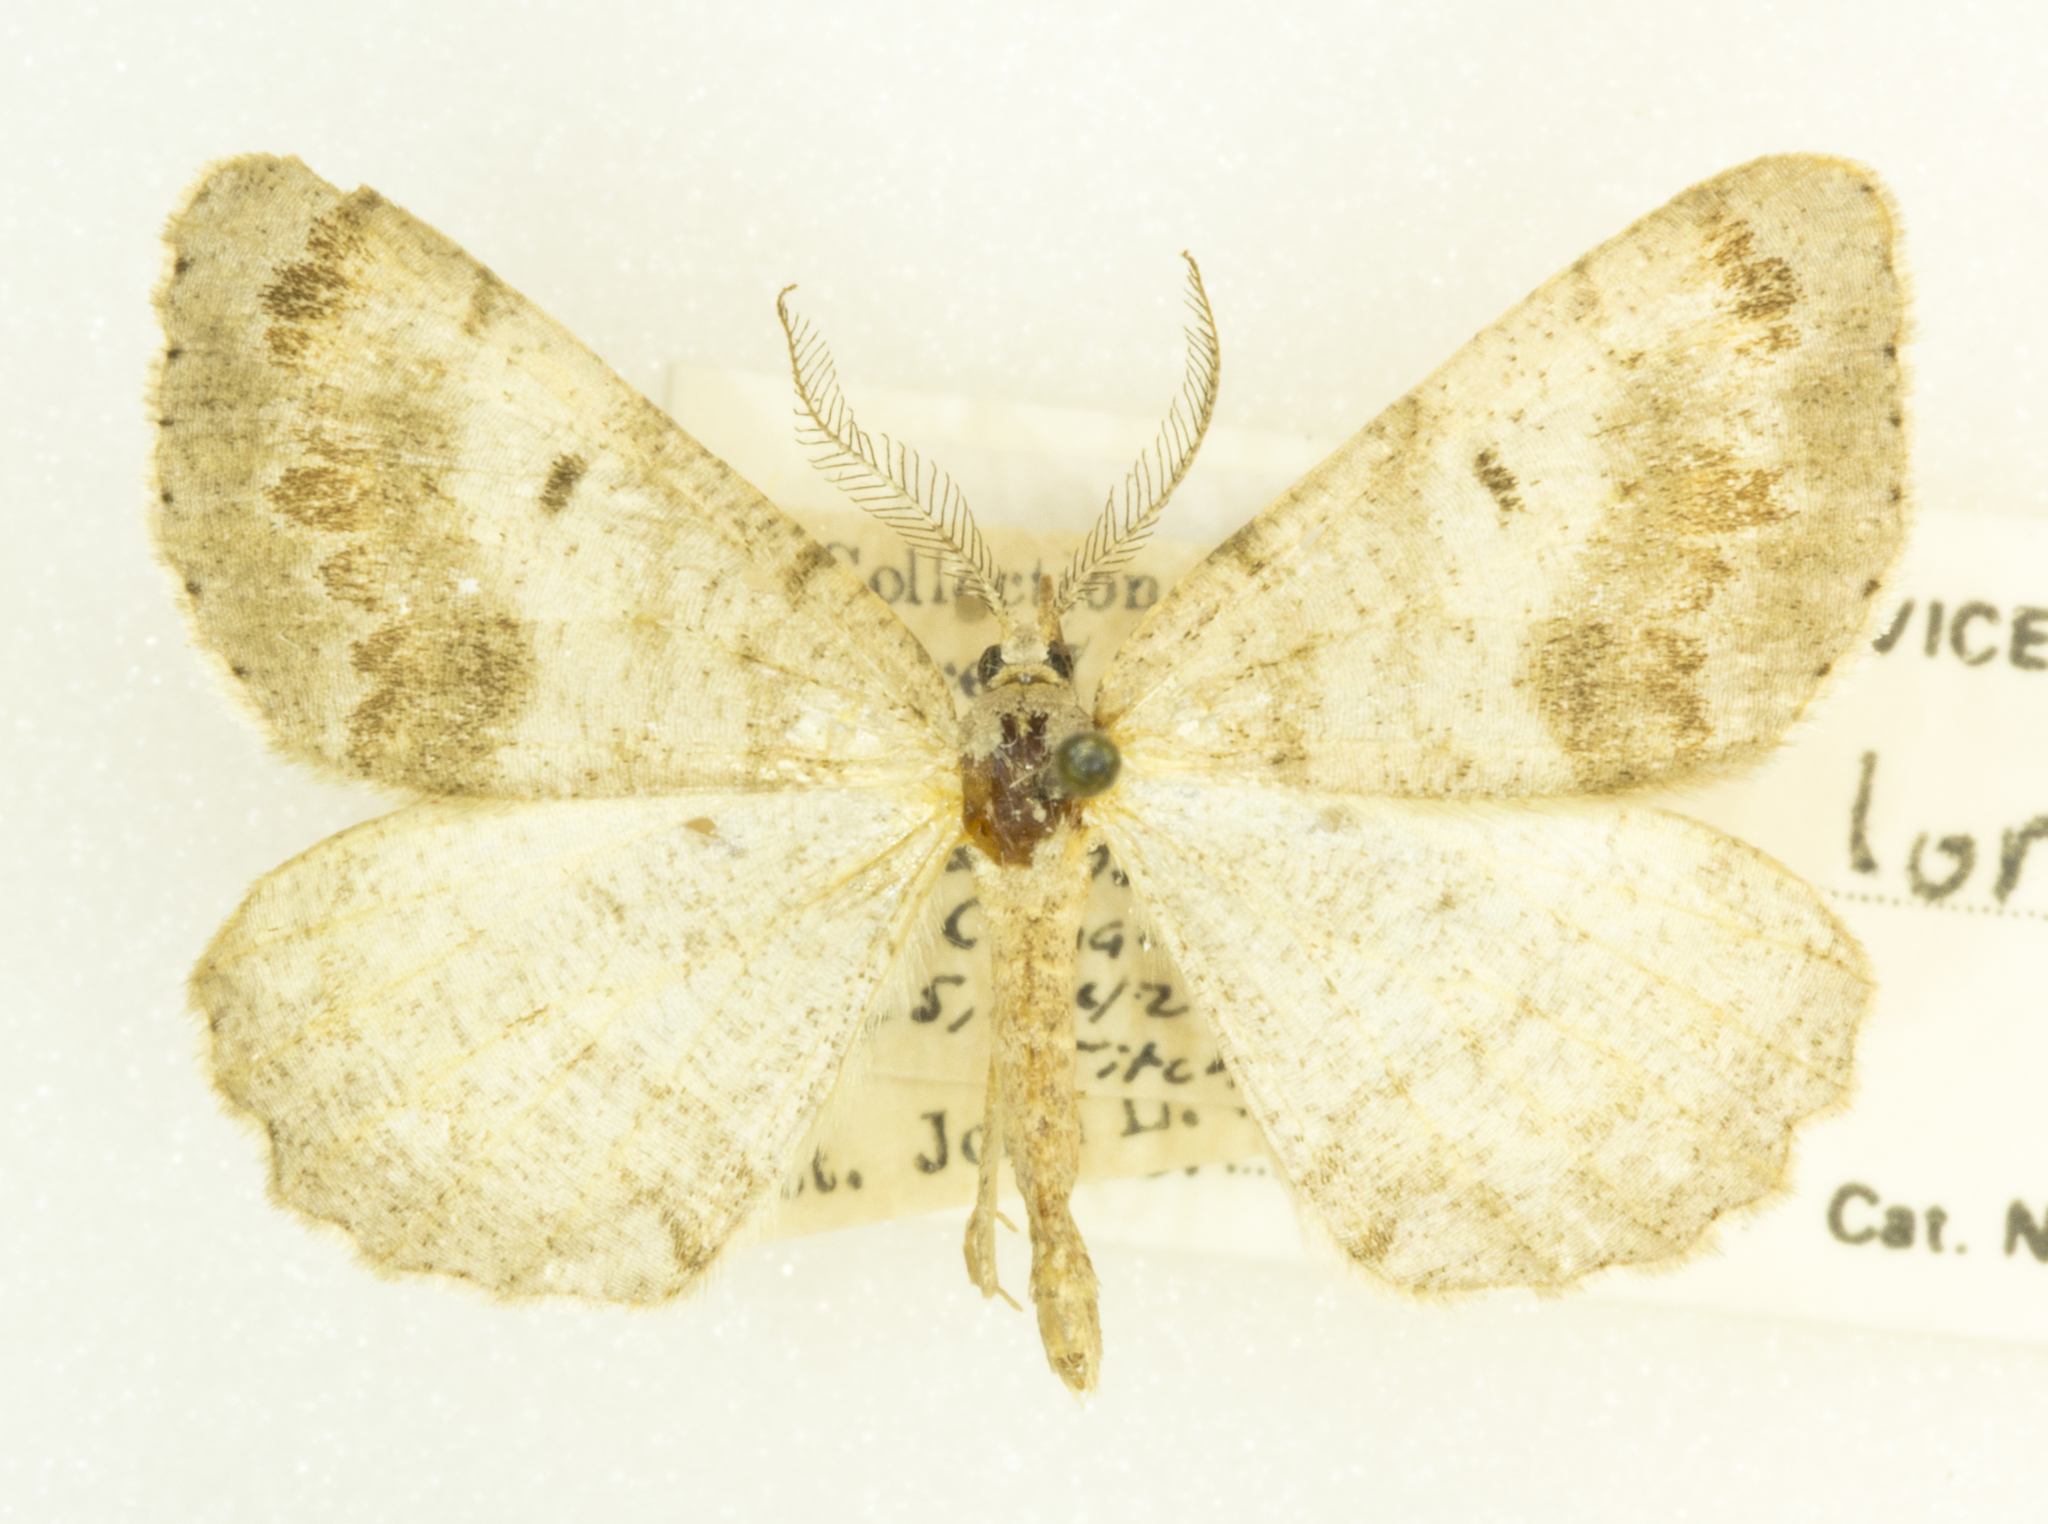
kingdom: Animalia
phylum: Arthropoda
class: Insecta
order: Lepidoptera
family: Geometridae
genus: Macaria
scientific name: Macaria loricaria
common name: False bruce spanworm
